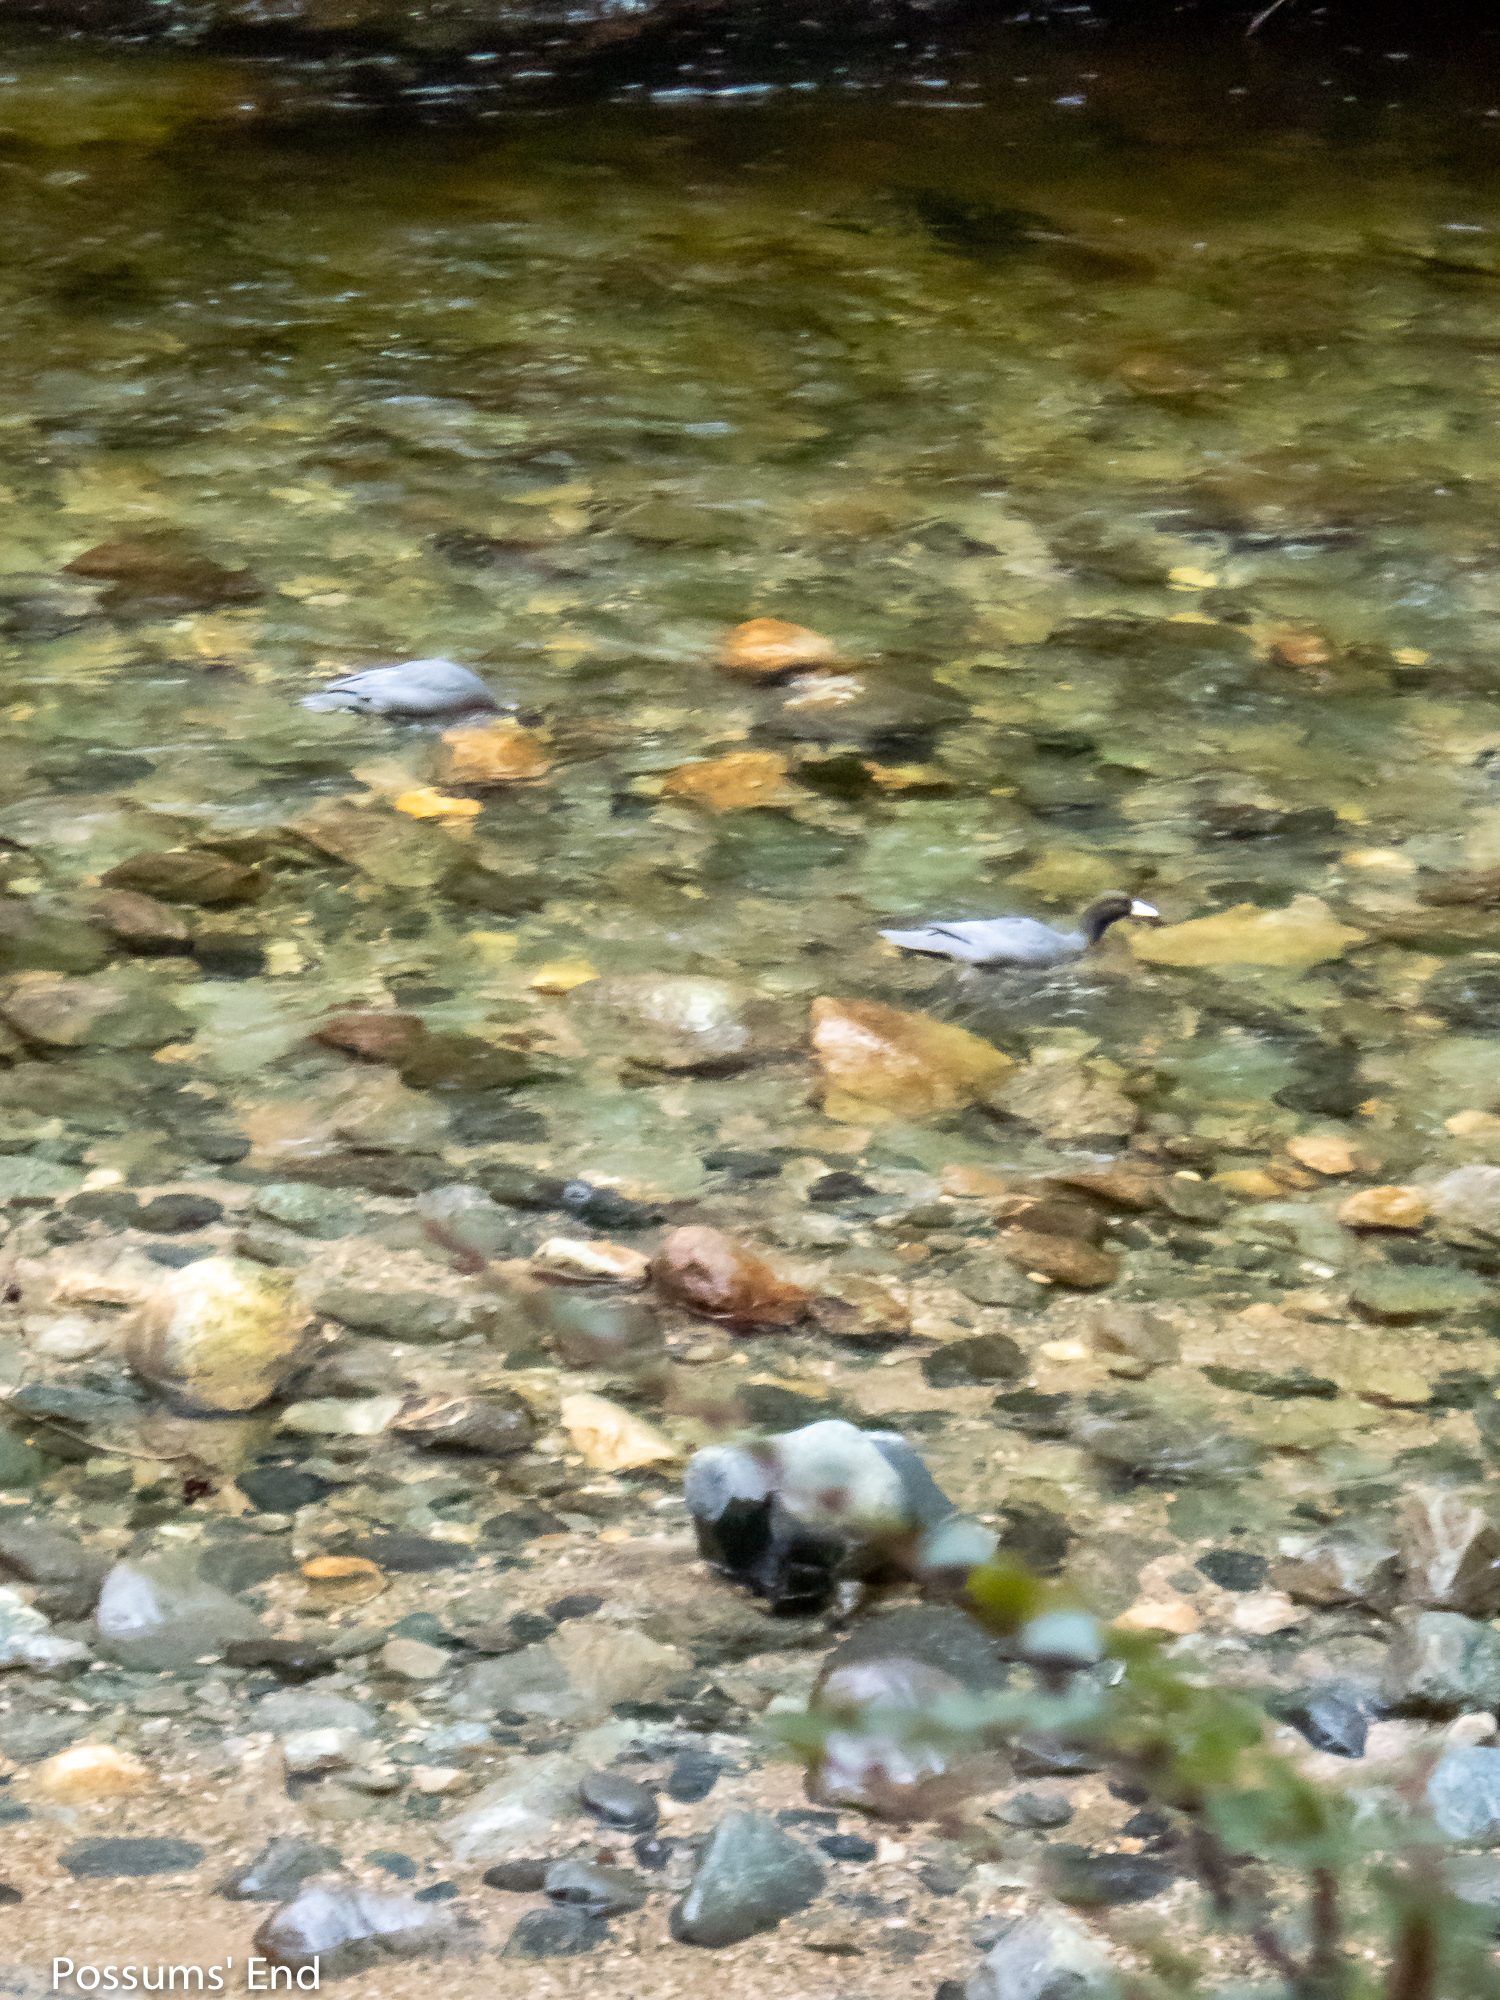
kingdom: Animalia
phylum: Chordata
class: Aves
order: Anseriformes
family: Anatidae
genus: Hymenolaimus
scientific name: Hymenolaimus malacorhynchos
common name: Blue duck
